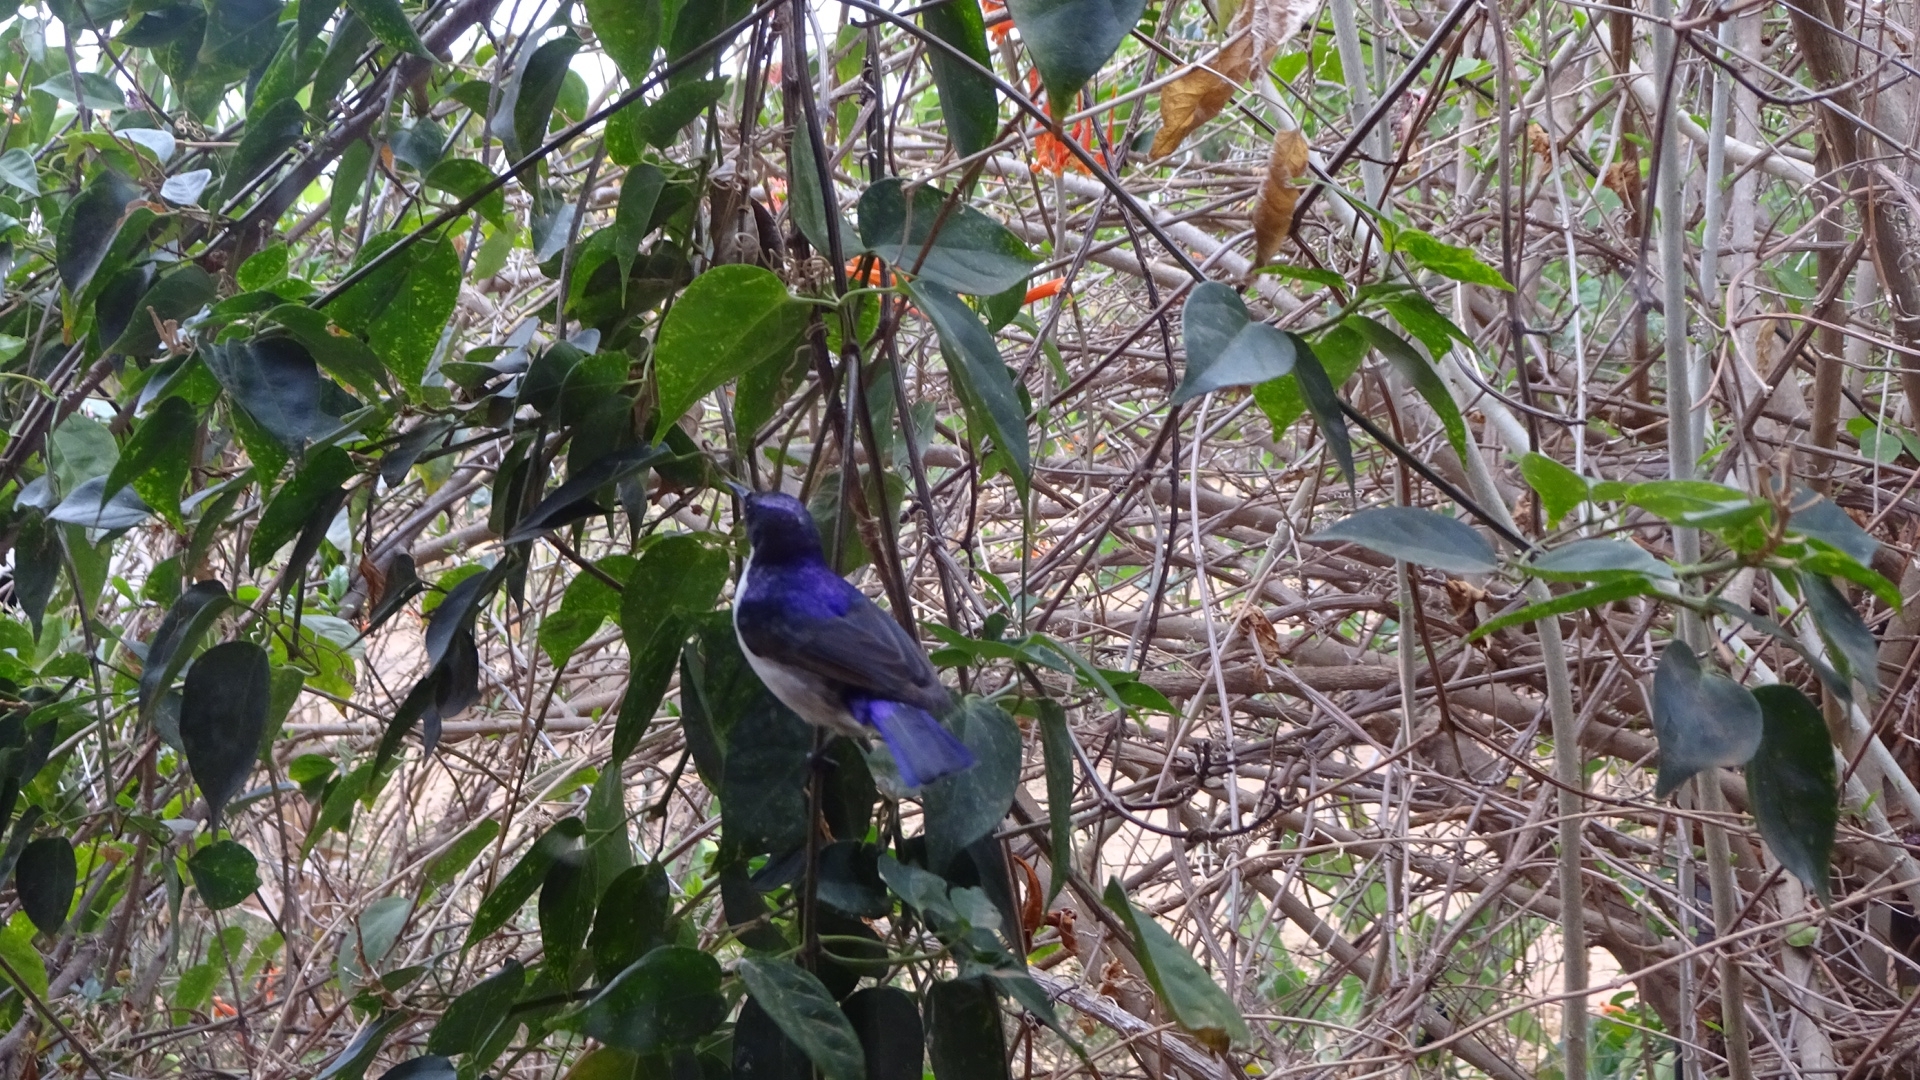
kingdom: Animalia
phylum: Chordata
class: Aves
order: Passeriformes
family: Nectariniidae
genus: Anthreptes
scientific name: Anthreptes orientalis
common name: Eastern violet-backed sunbird
